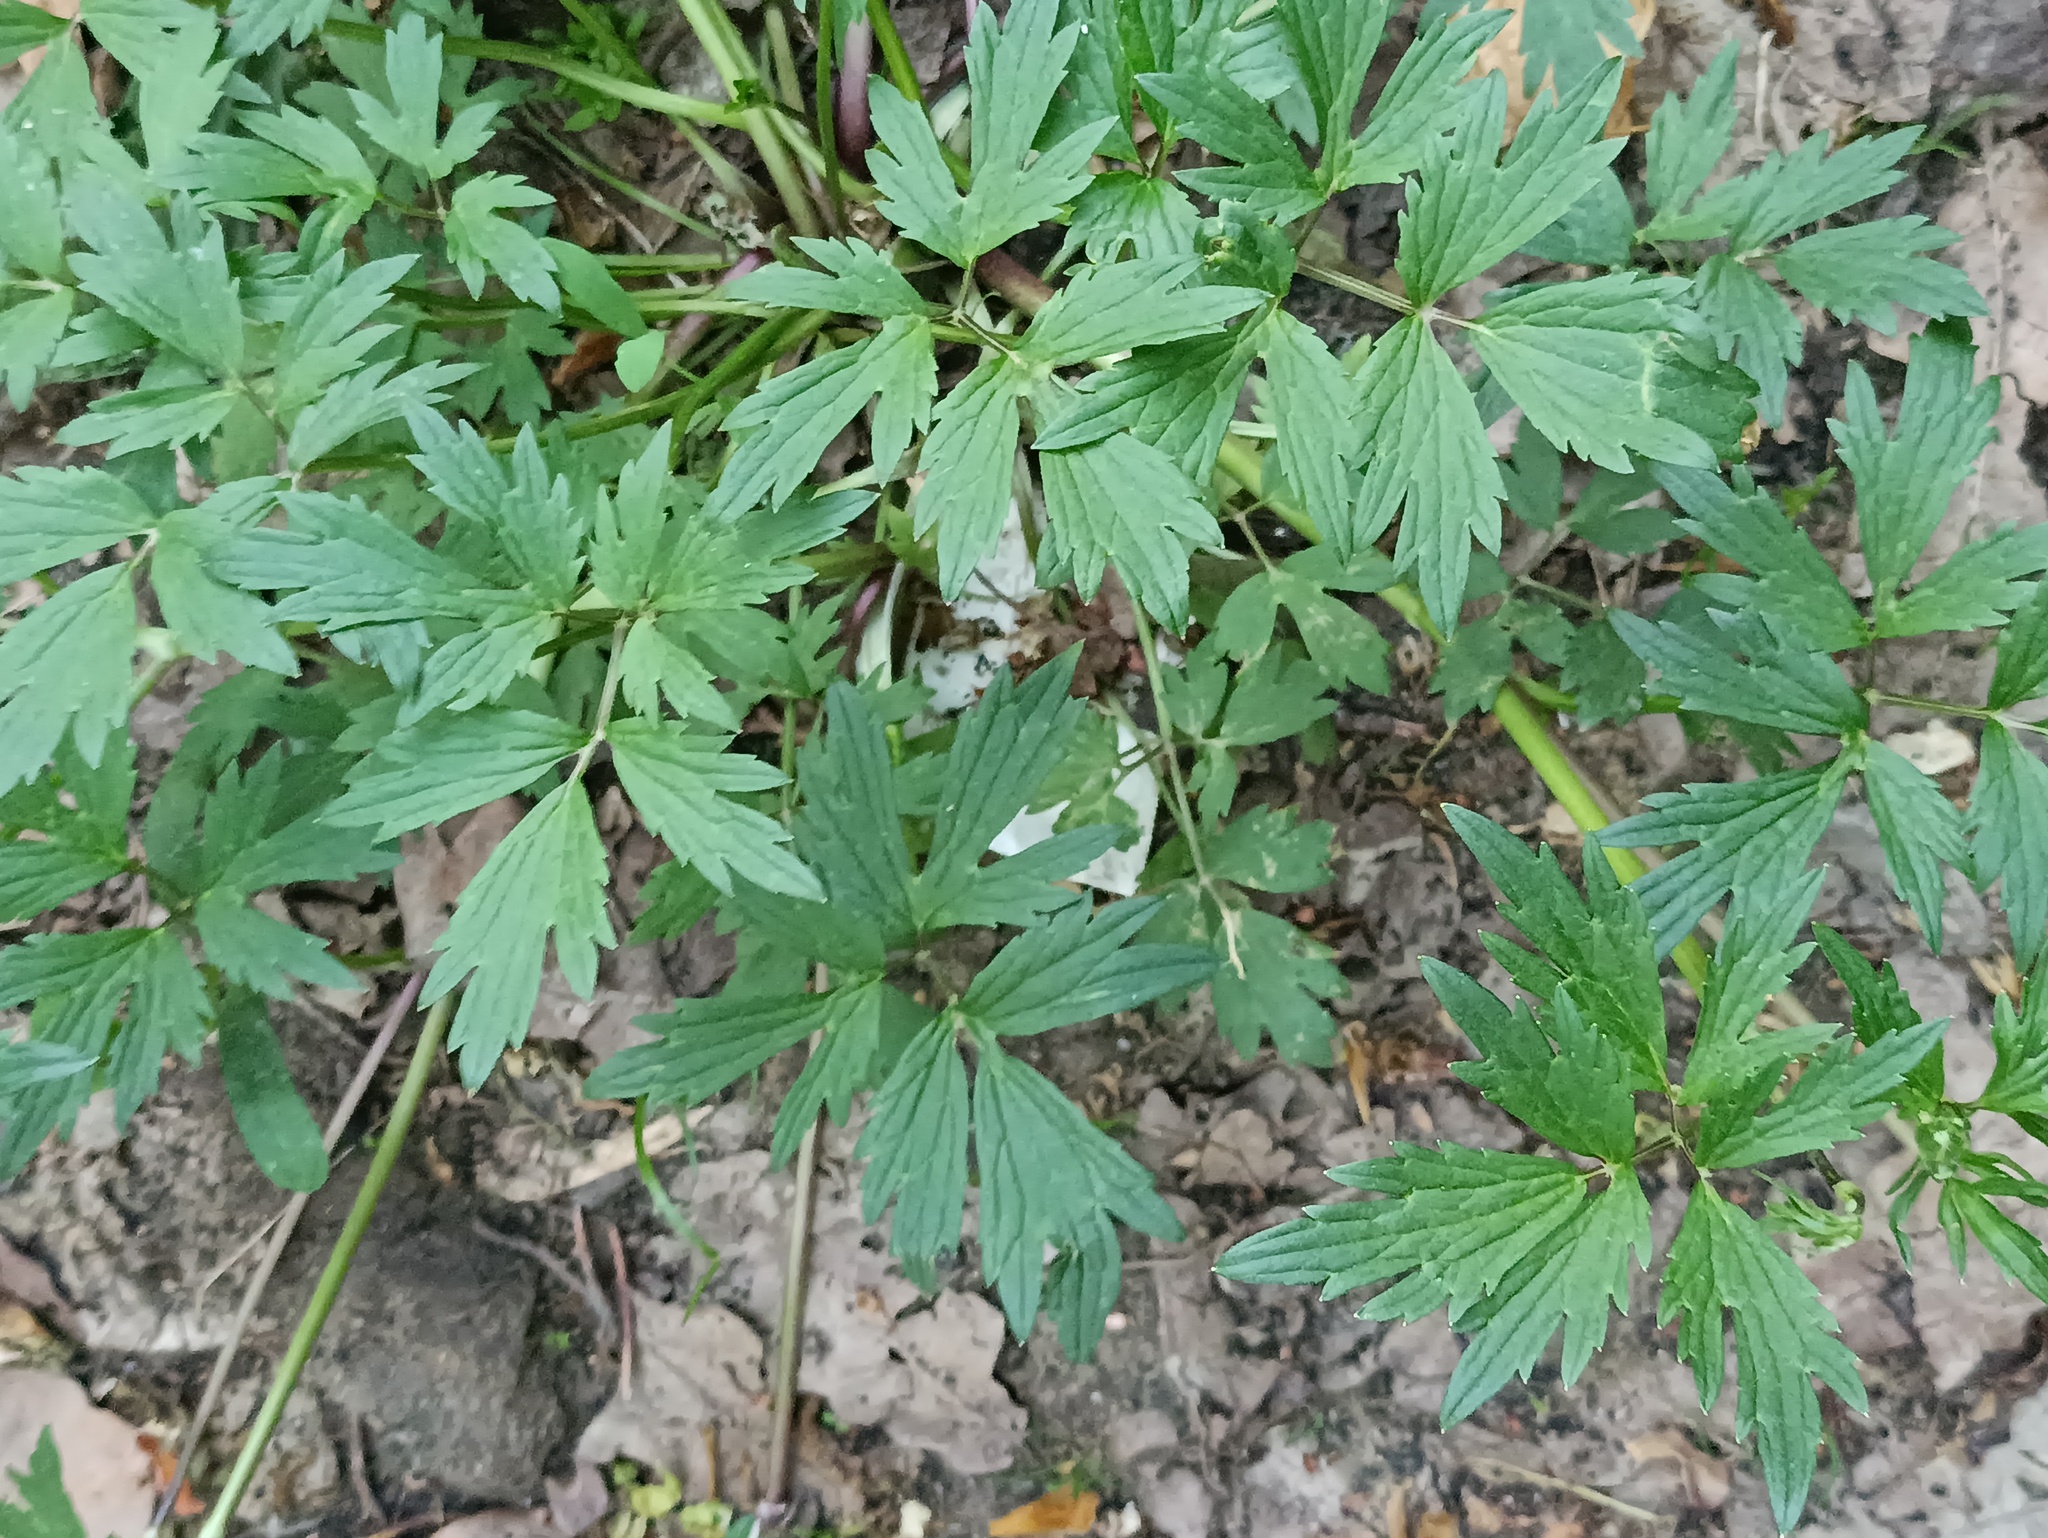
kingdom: Plantae
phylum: Tracheophyta
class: Magnoliopsida
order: Ranunculales
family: Ranunculaceae
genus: Ranunculus
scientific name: Ranunculus repens
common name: Creeping buttercup
